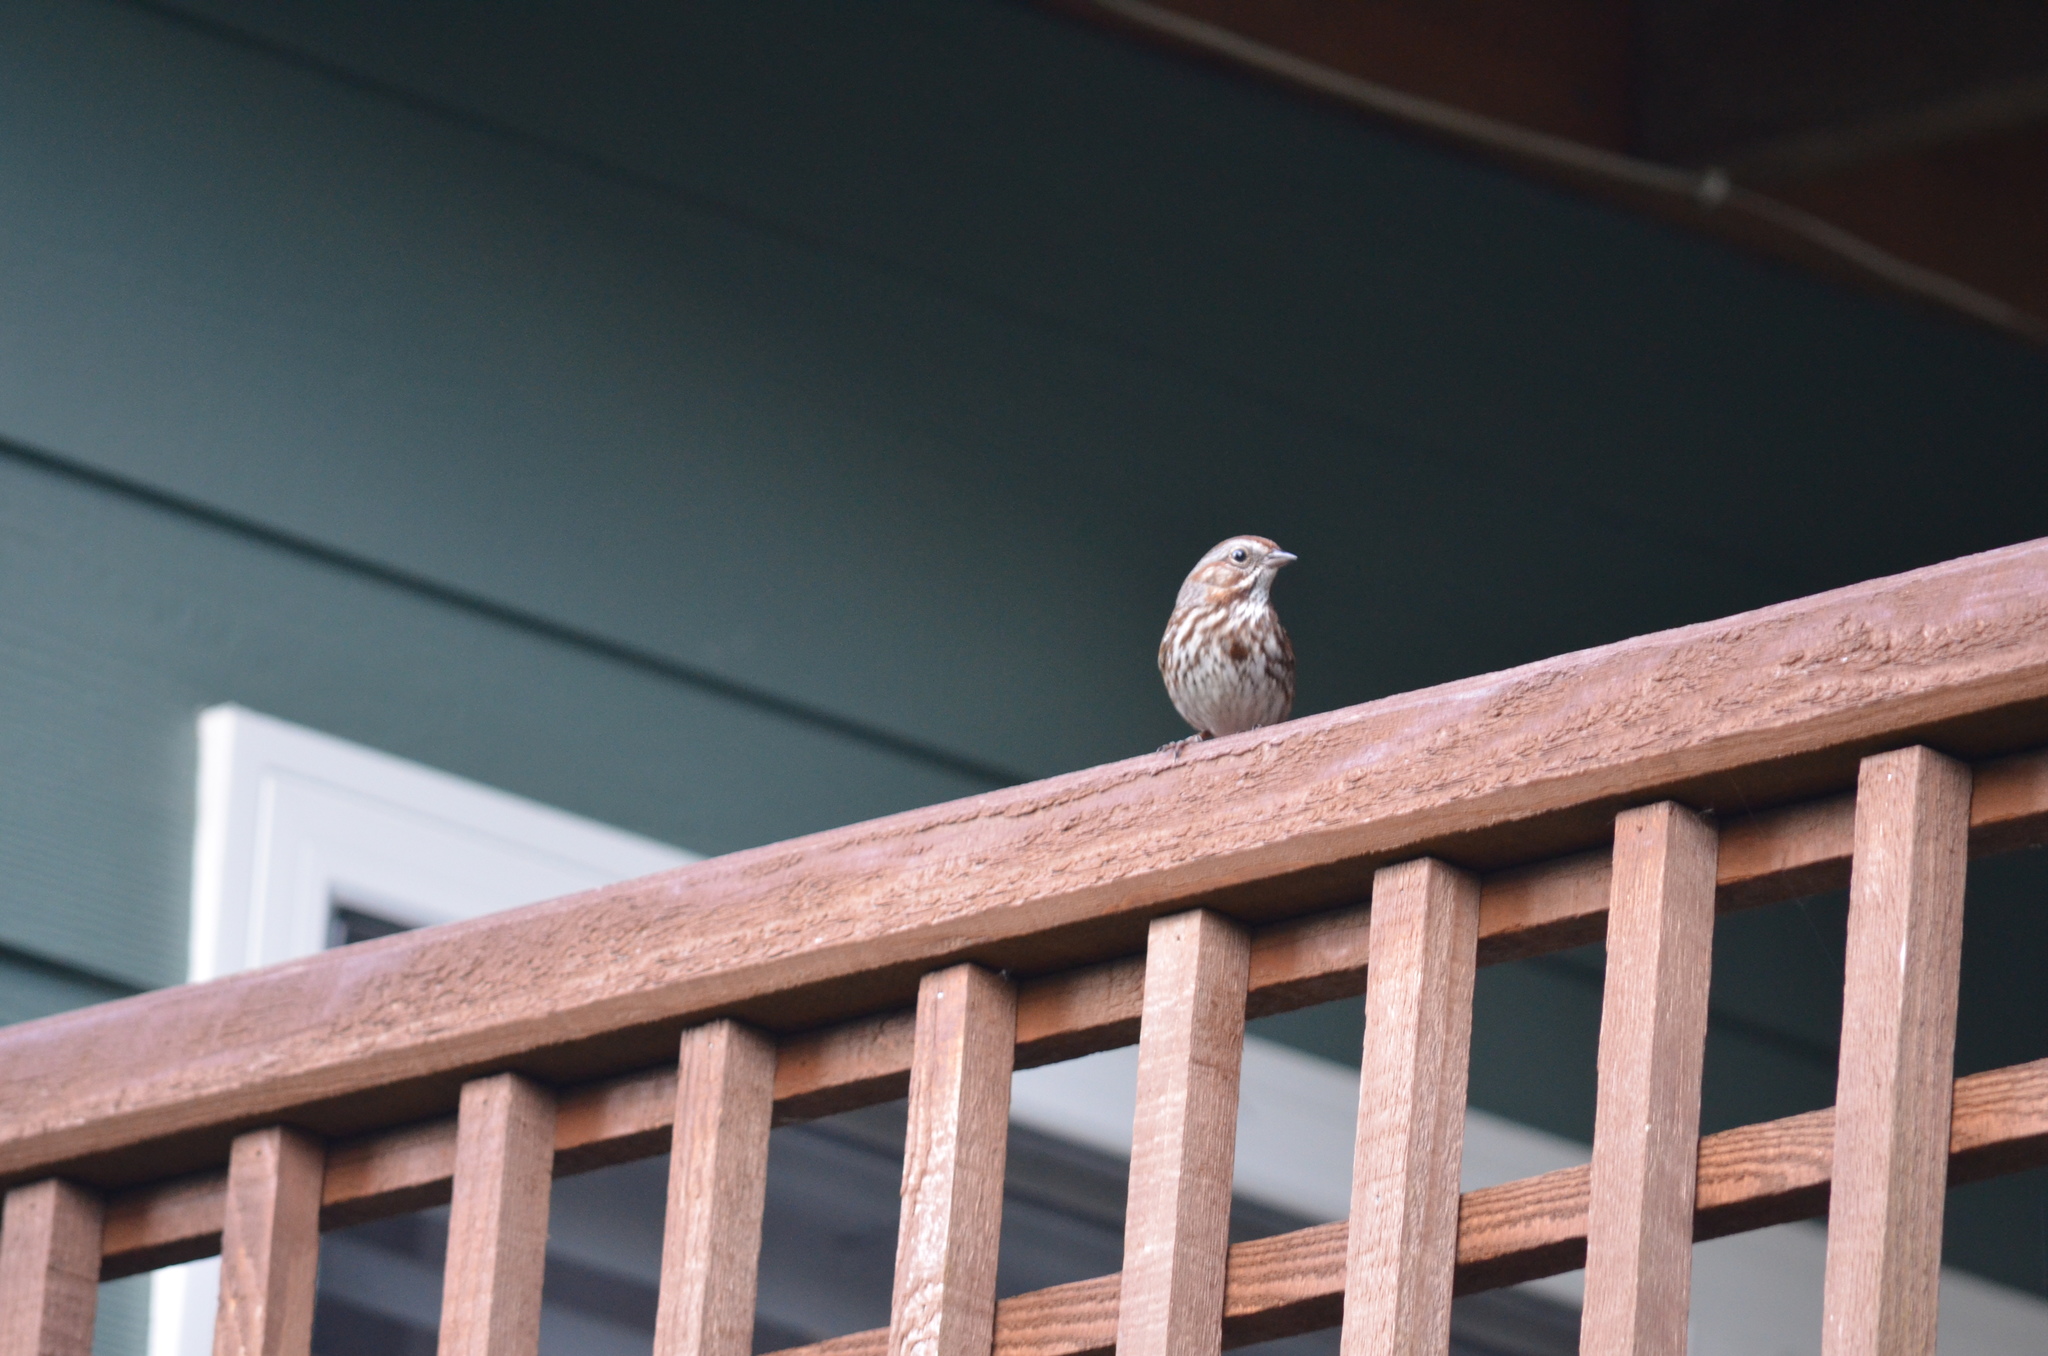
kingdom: Animalia
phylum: Chordata
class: Aves
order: Passeriformes
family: Passerellidae
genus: Melospiza
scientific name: Melospiza melodia
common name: Song sparrow
